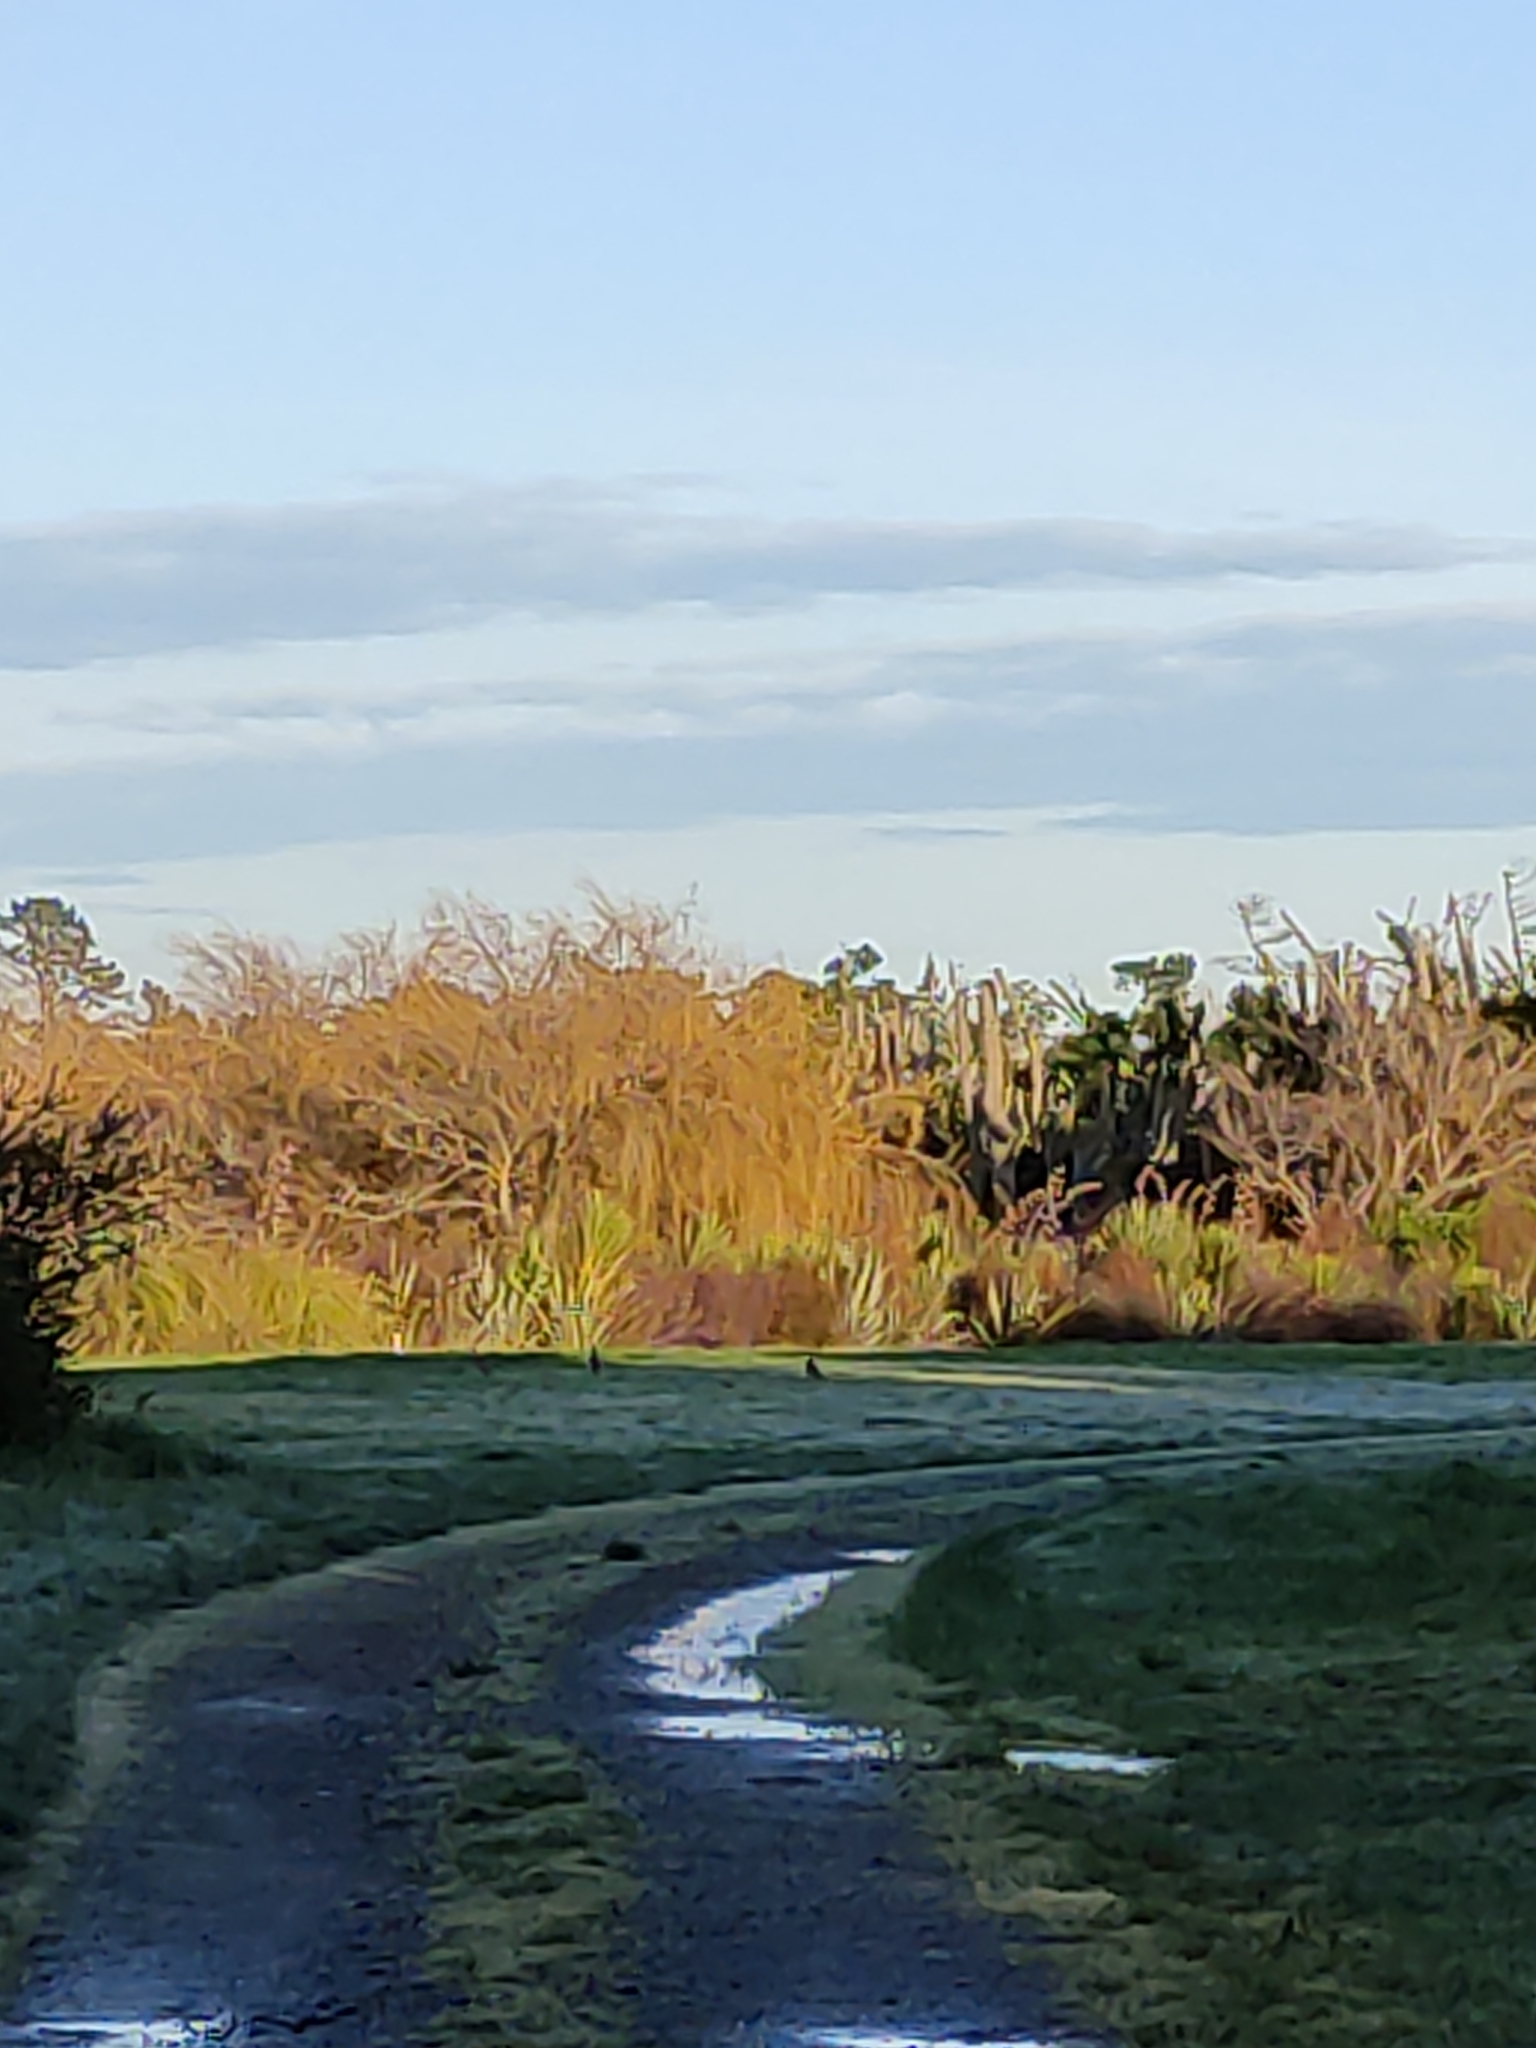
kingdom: Animalia
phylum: Chordata
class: Aves
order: Charadriiformes
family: Charadriidae
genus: Vanellus
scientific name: Vanellus miles
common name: Masked lapwing
